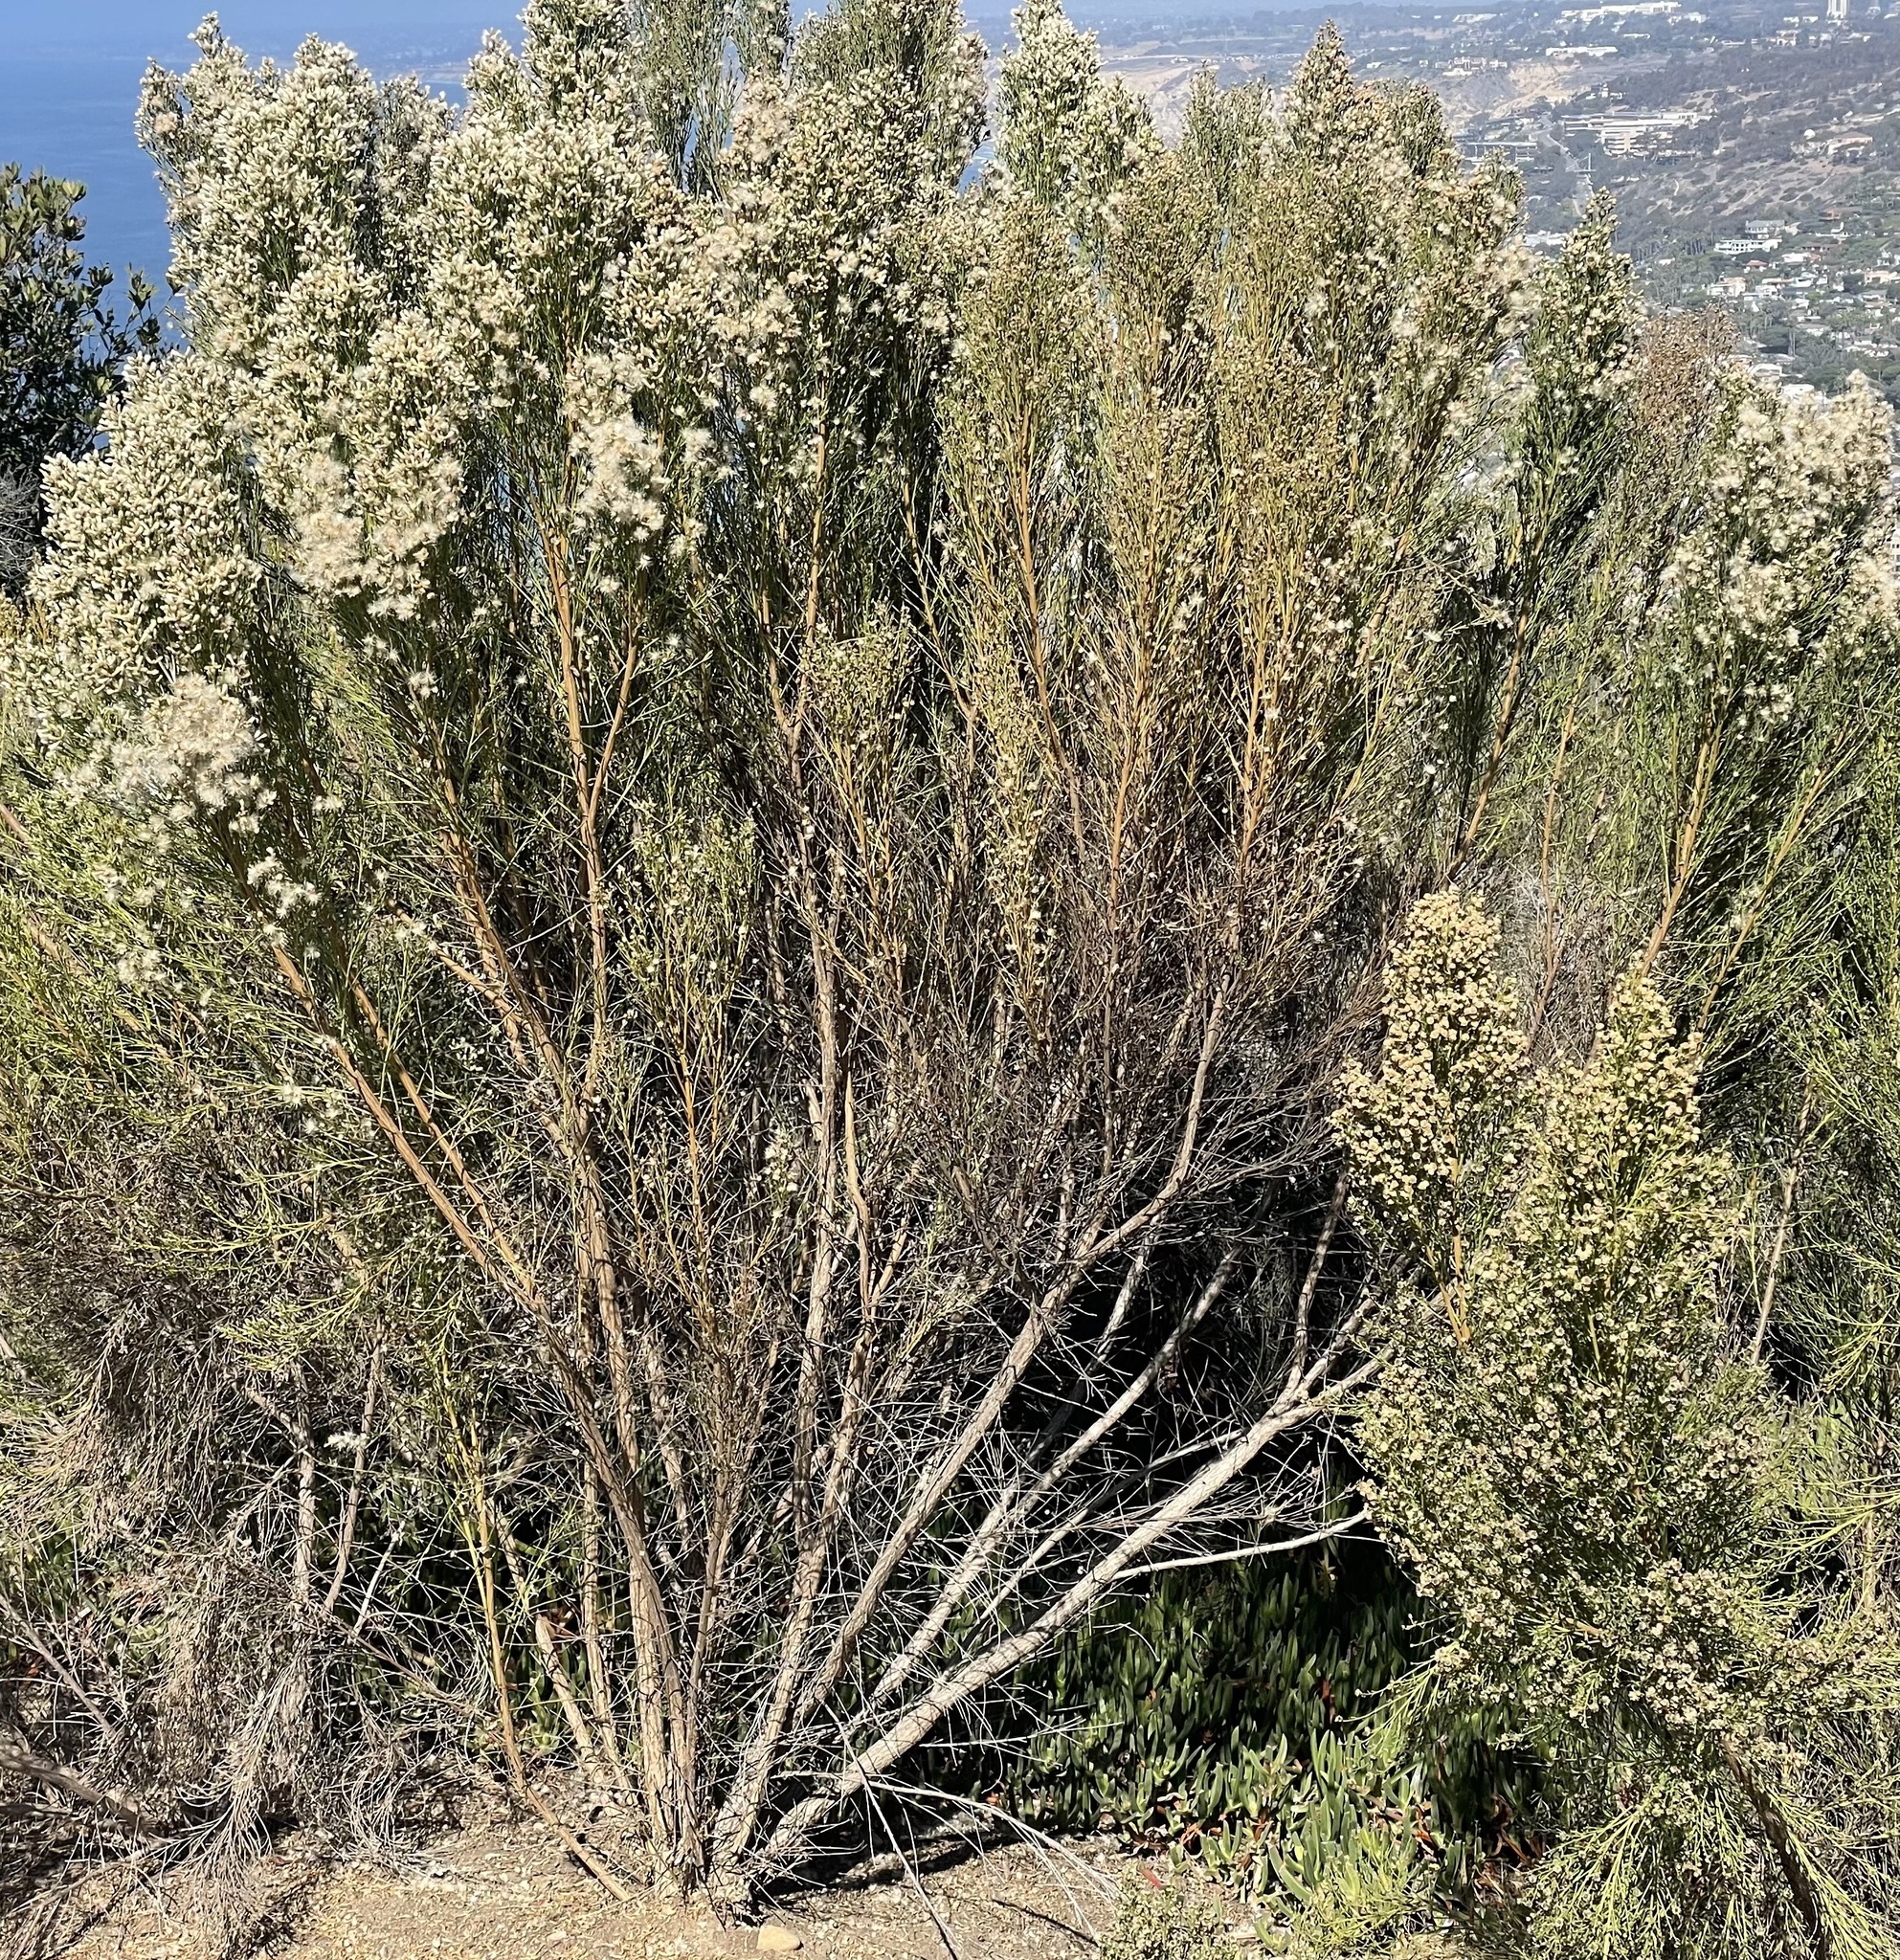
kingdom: Plantae
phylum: Tracheophyta
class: Magnoliopsida
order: Asterales
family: Asteraceae
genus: Baccharis
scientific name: Baccharis sarothroides
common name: Desert-broom
